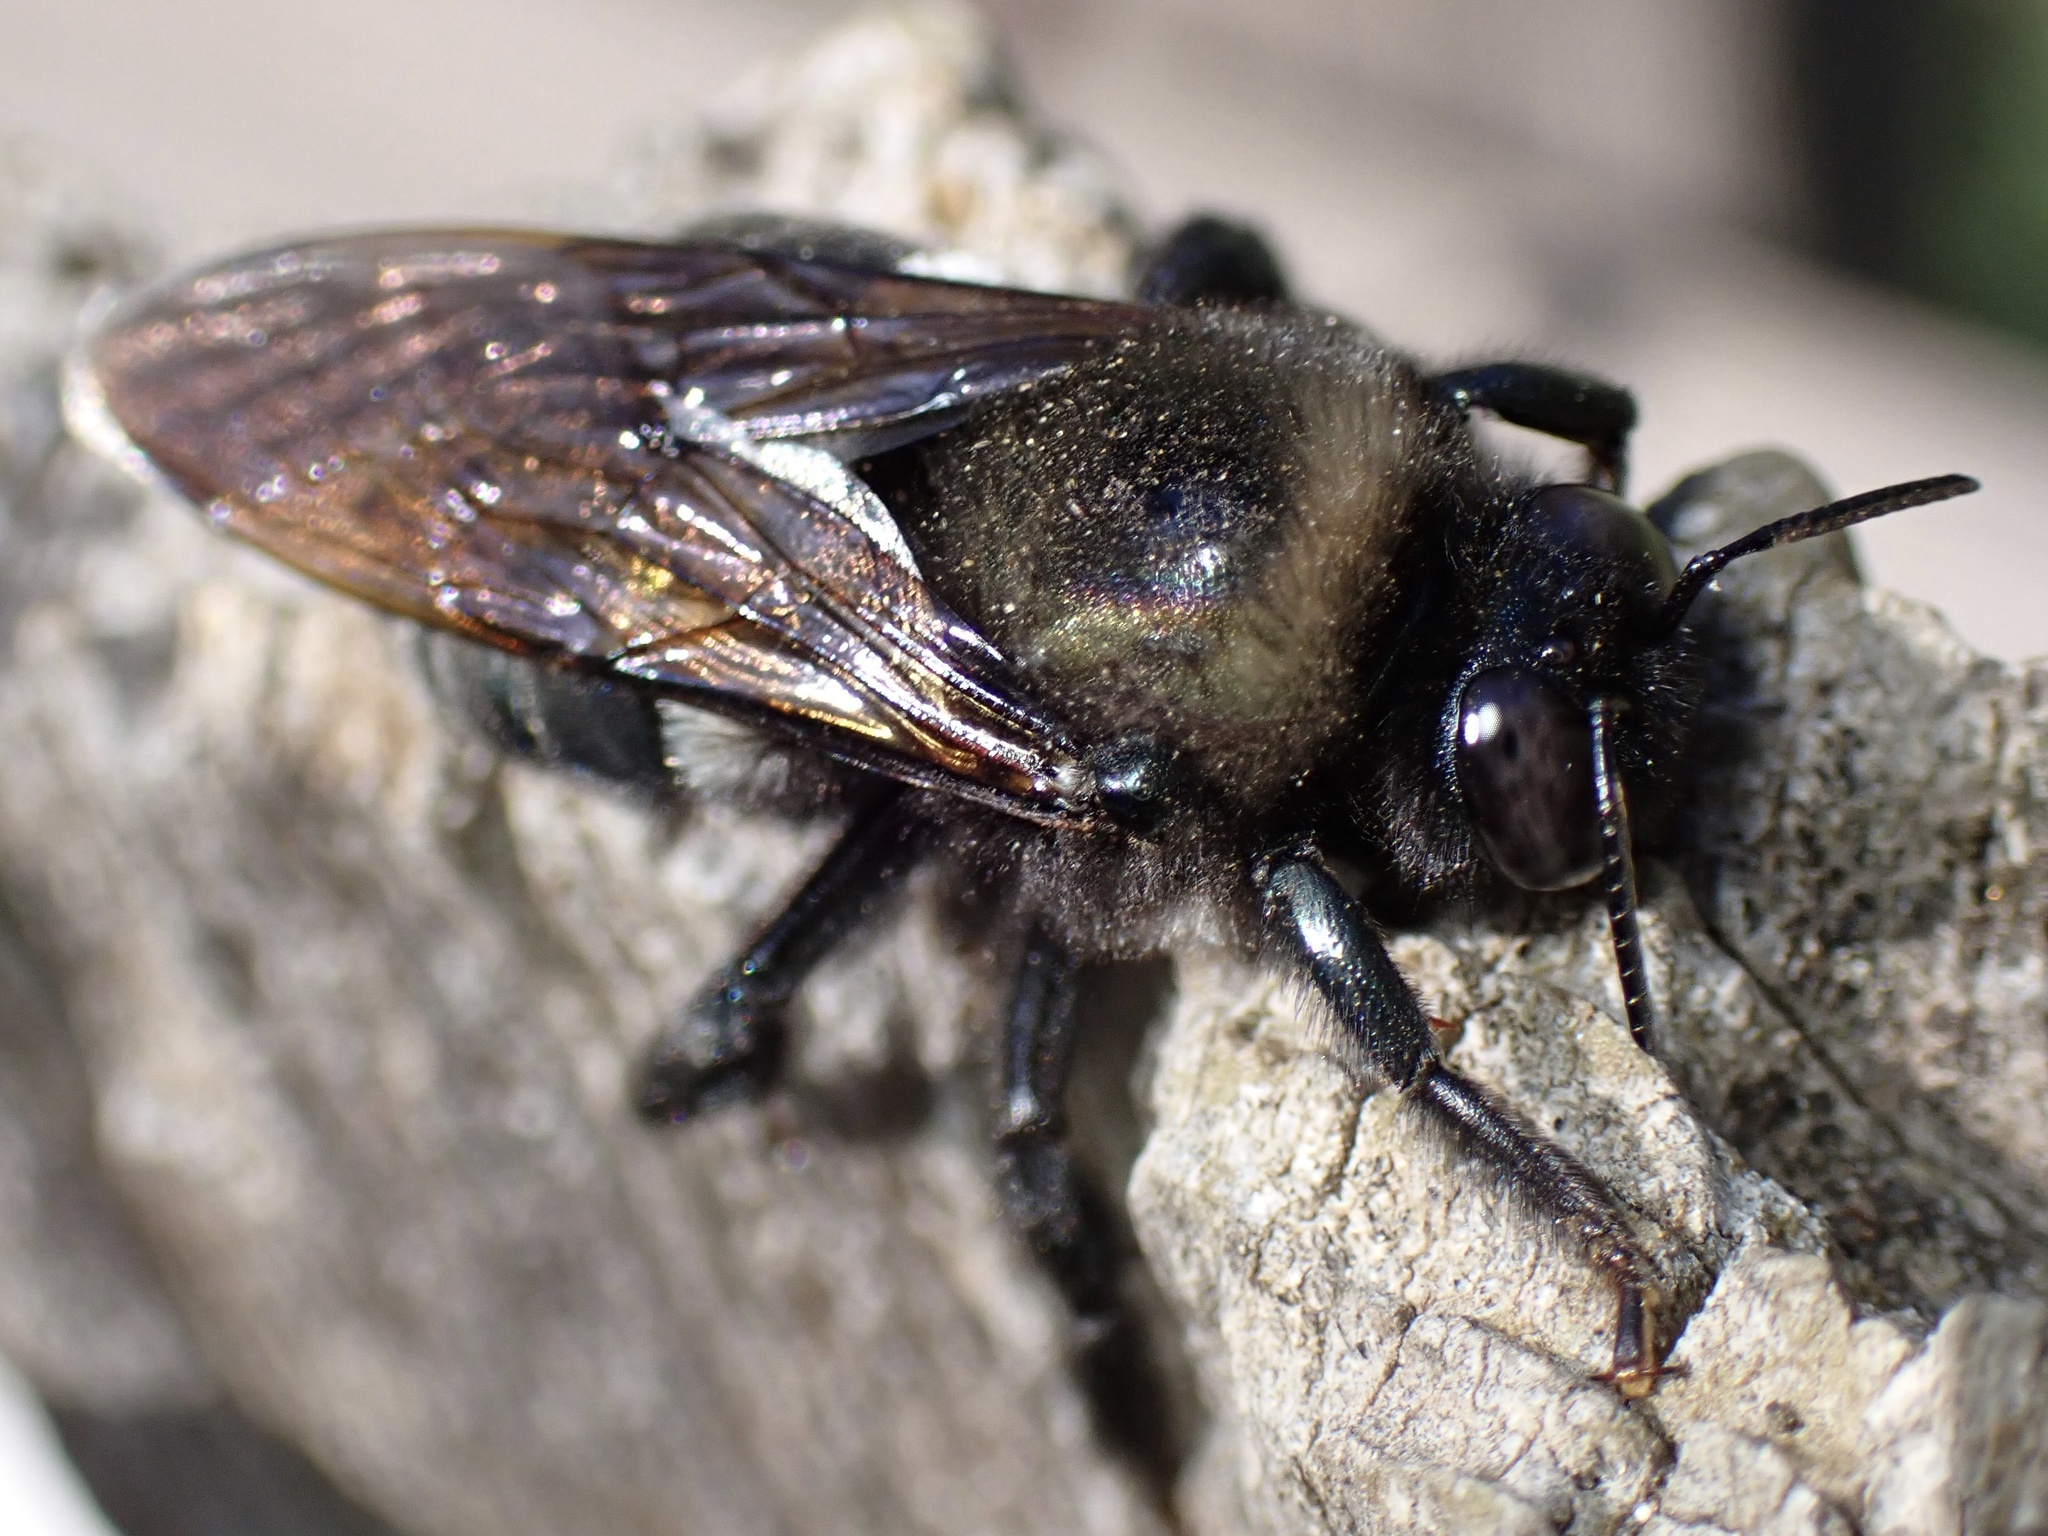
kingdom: Animalia
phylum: Arthropoda
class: Insecta
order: Hymenoptera
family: Apidae
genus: Xylocopa
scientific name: Xylocopa californica
